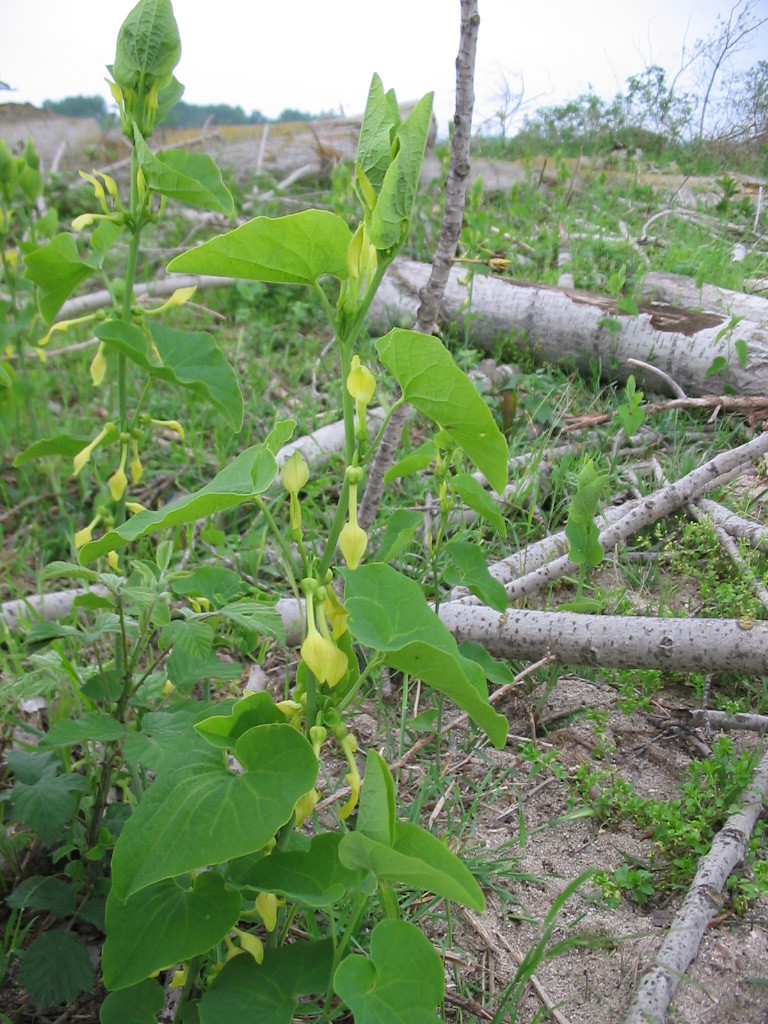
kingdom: Plantae
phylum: Tracheophyta
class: Magnoliopsida
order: Piperales
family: Aristolochiaceae
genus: Aristolochia
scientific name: Aristolochia clematitis
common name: Birthwort
